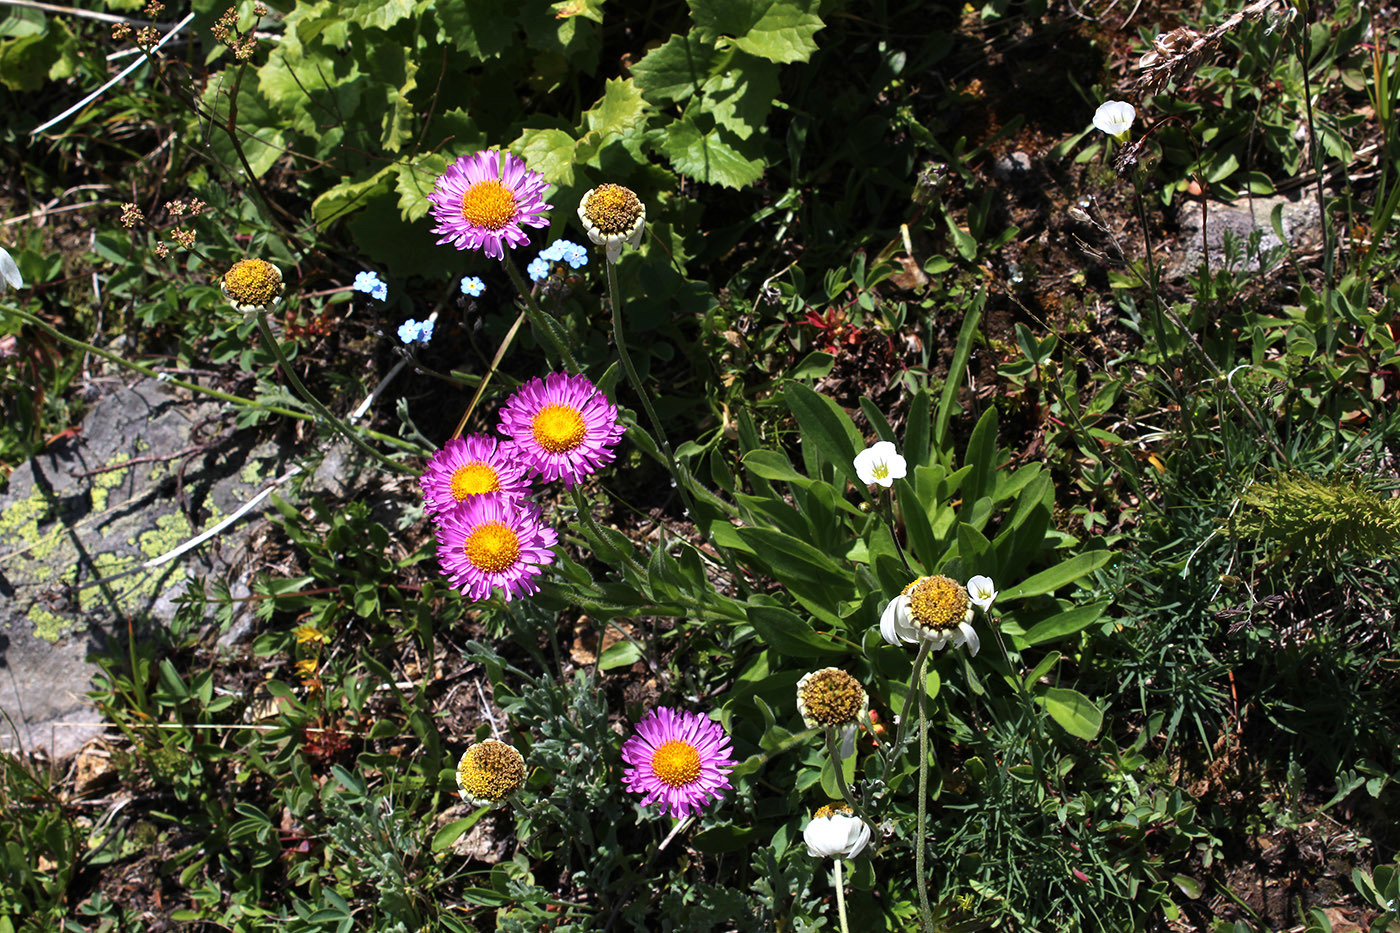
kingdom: Plantae
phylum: Tracheophyta
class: Magnoliopsida
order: Asterales
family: Asteraceae
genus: Erigeron
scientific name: Erigeron caucasicus
